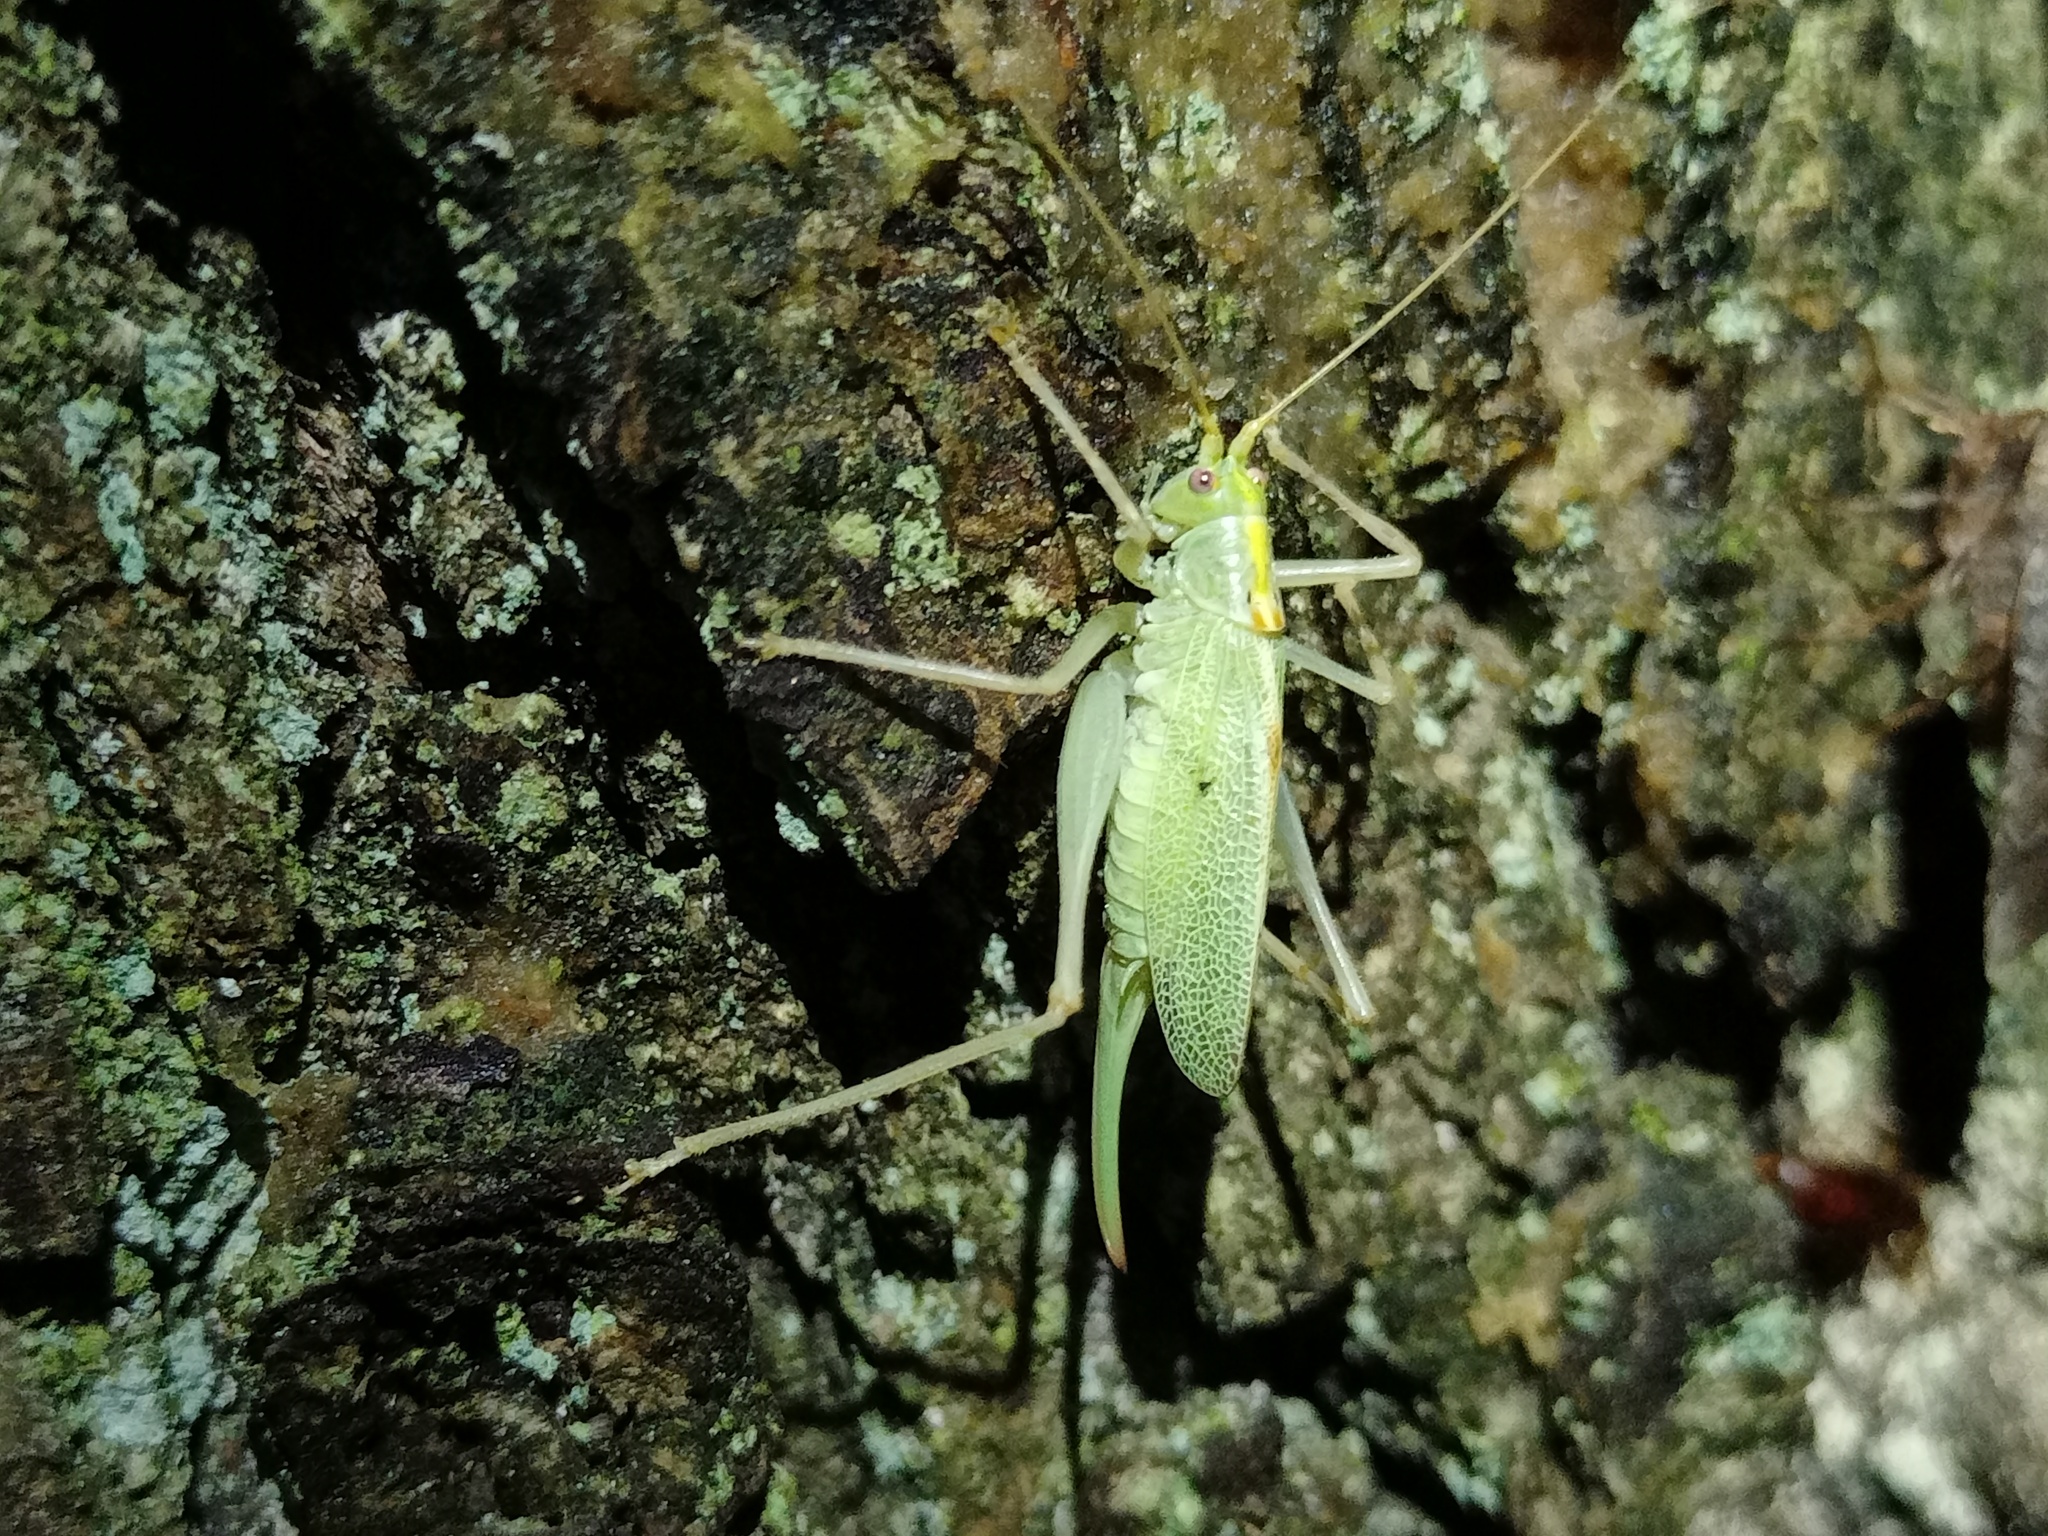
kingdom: Animalia
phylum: Arthropoda
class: Insecta
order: Orthoptera
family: Tettigoniidae
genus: Meconema
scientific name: Meconema thalassinum
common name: Oak bush-cricket
